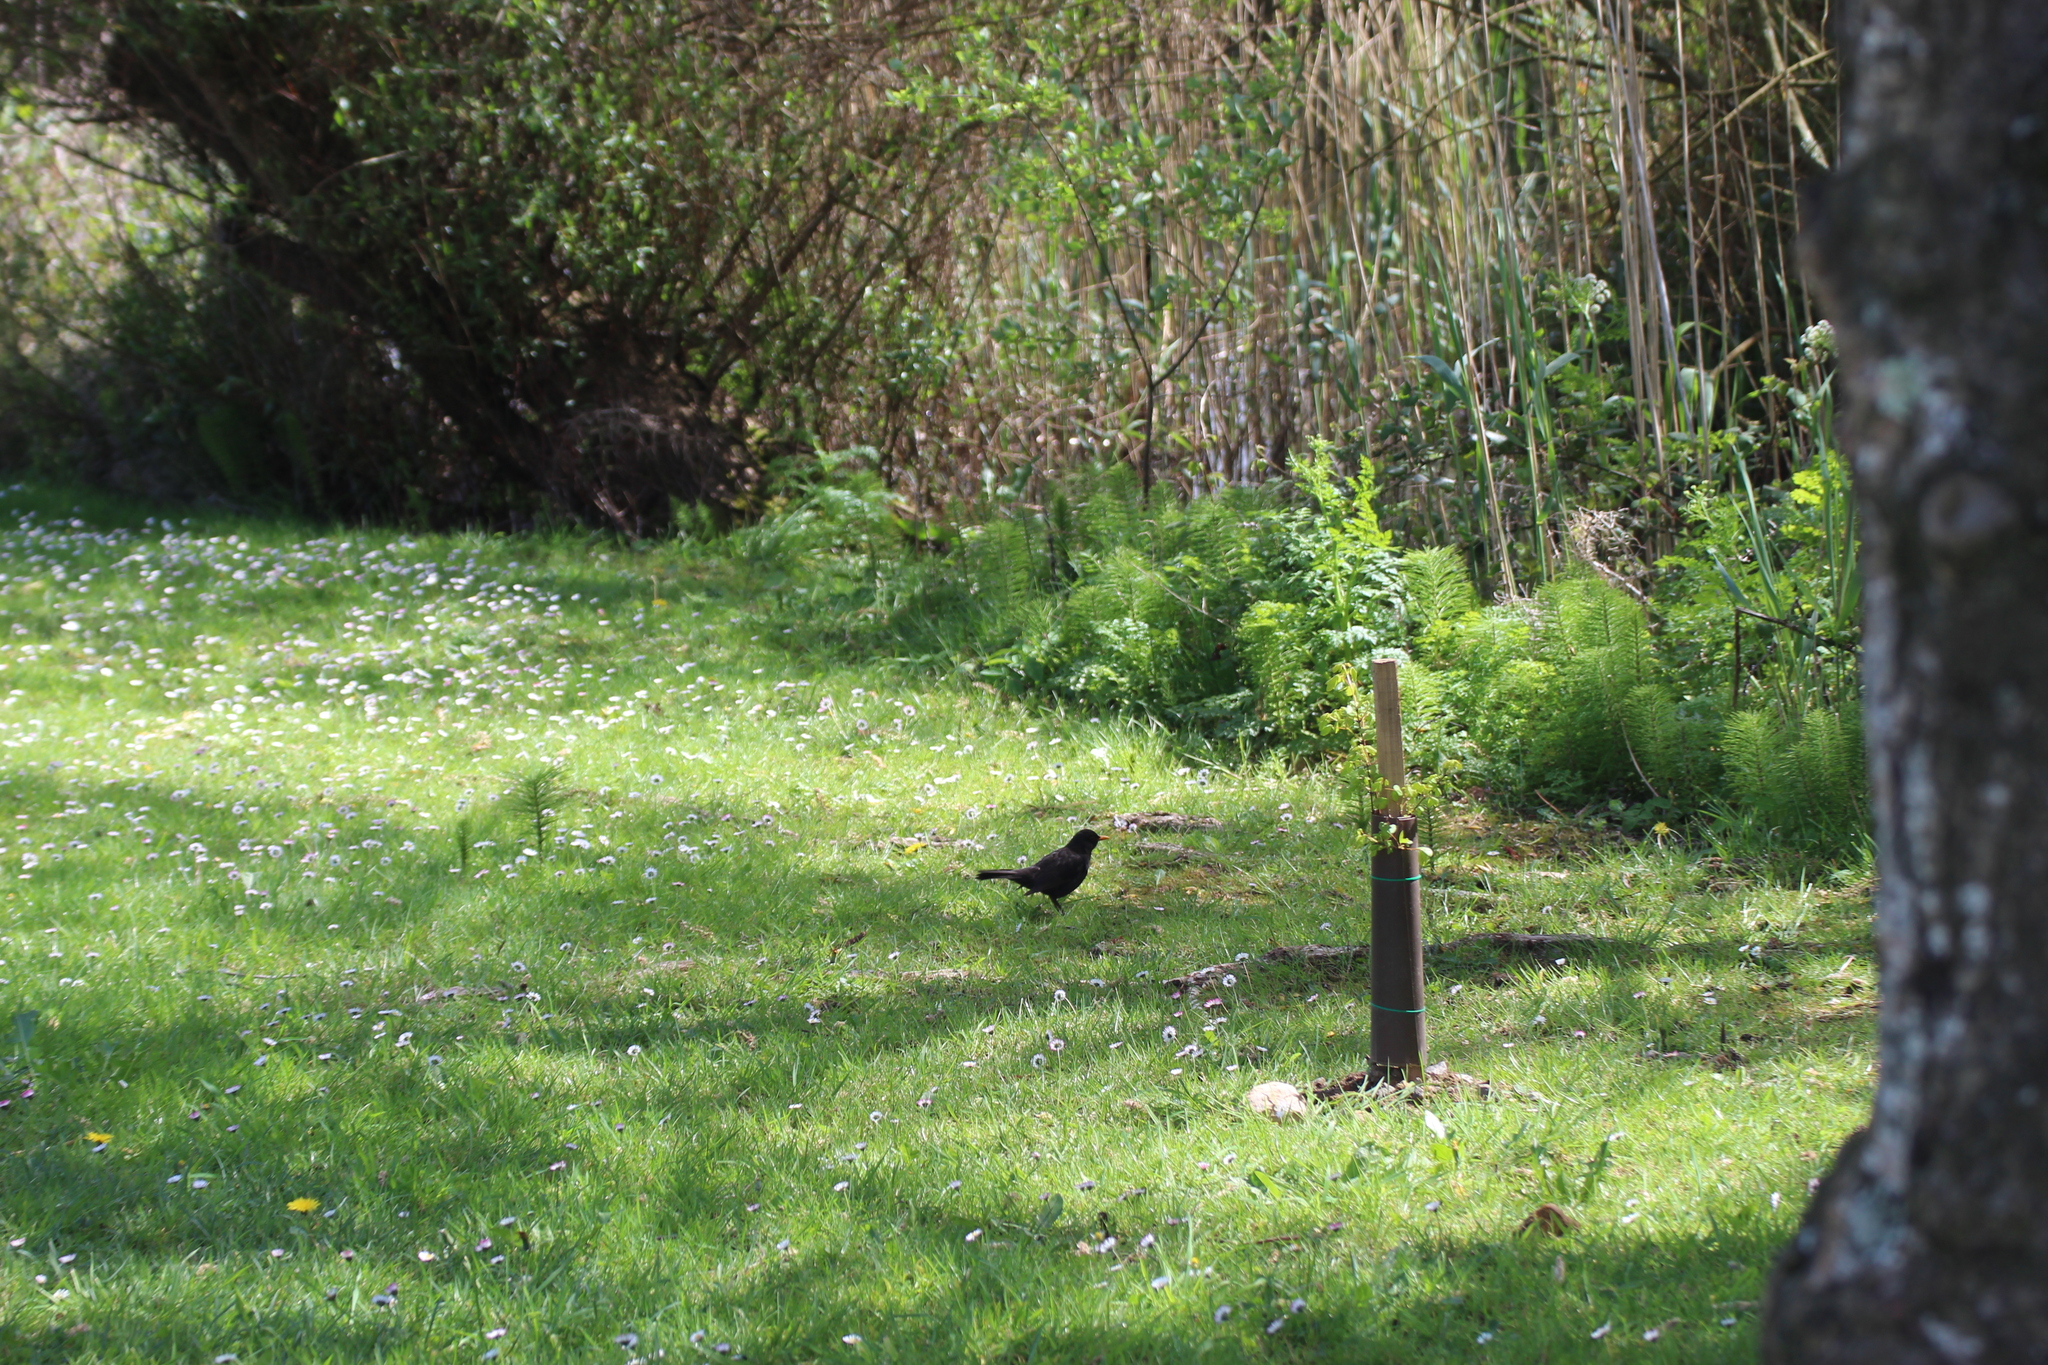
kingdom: Animalia
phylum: Chordata
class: Aves
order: Passeriformes
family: Turdidae
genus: Turdus
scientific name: Turdus merula
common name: Common blackbird
